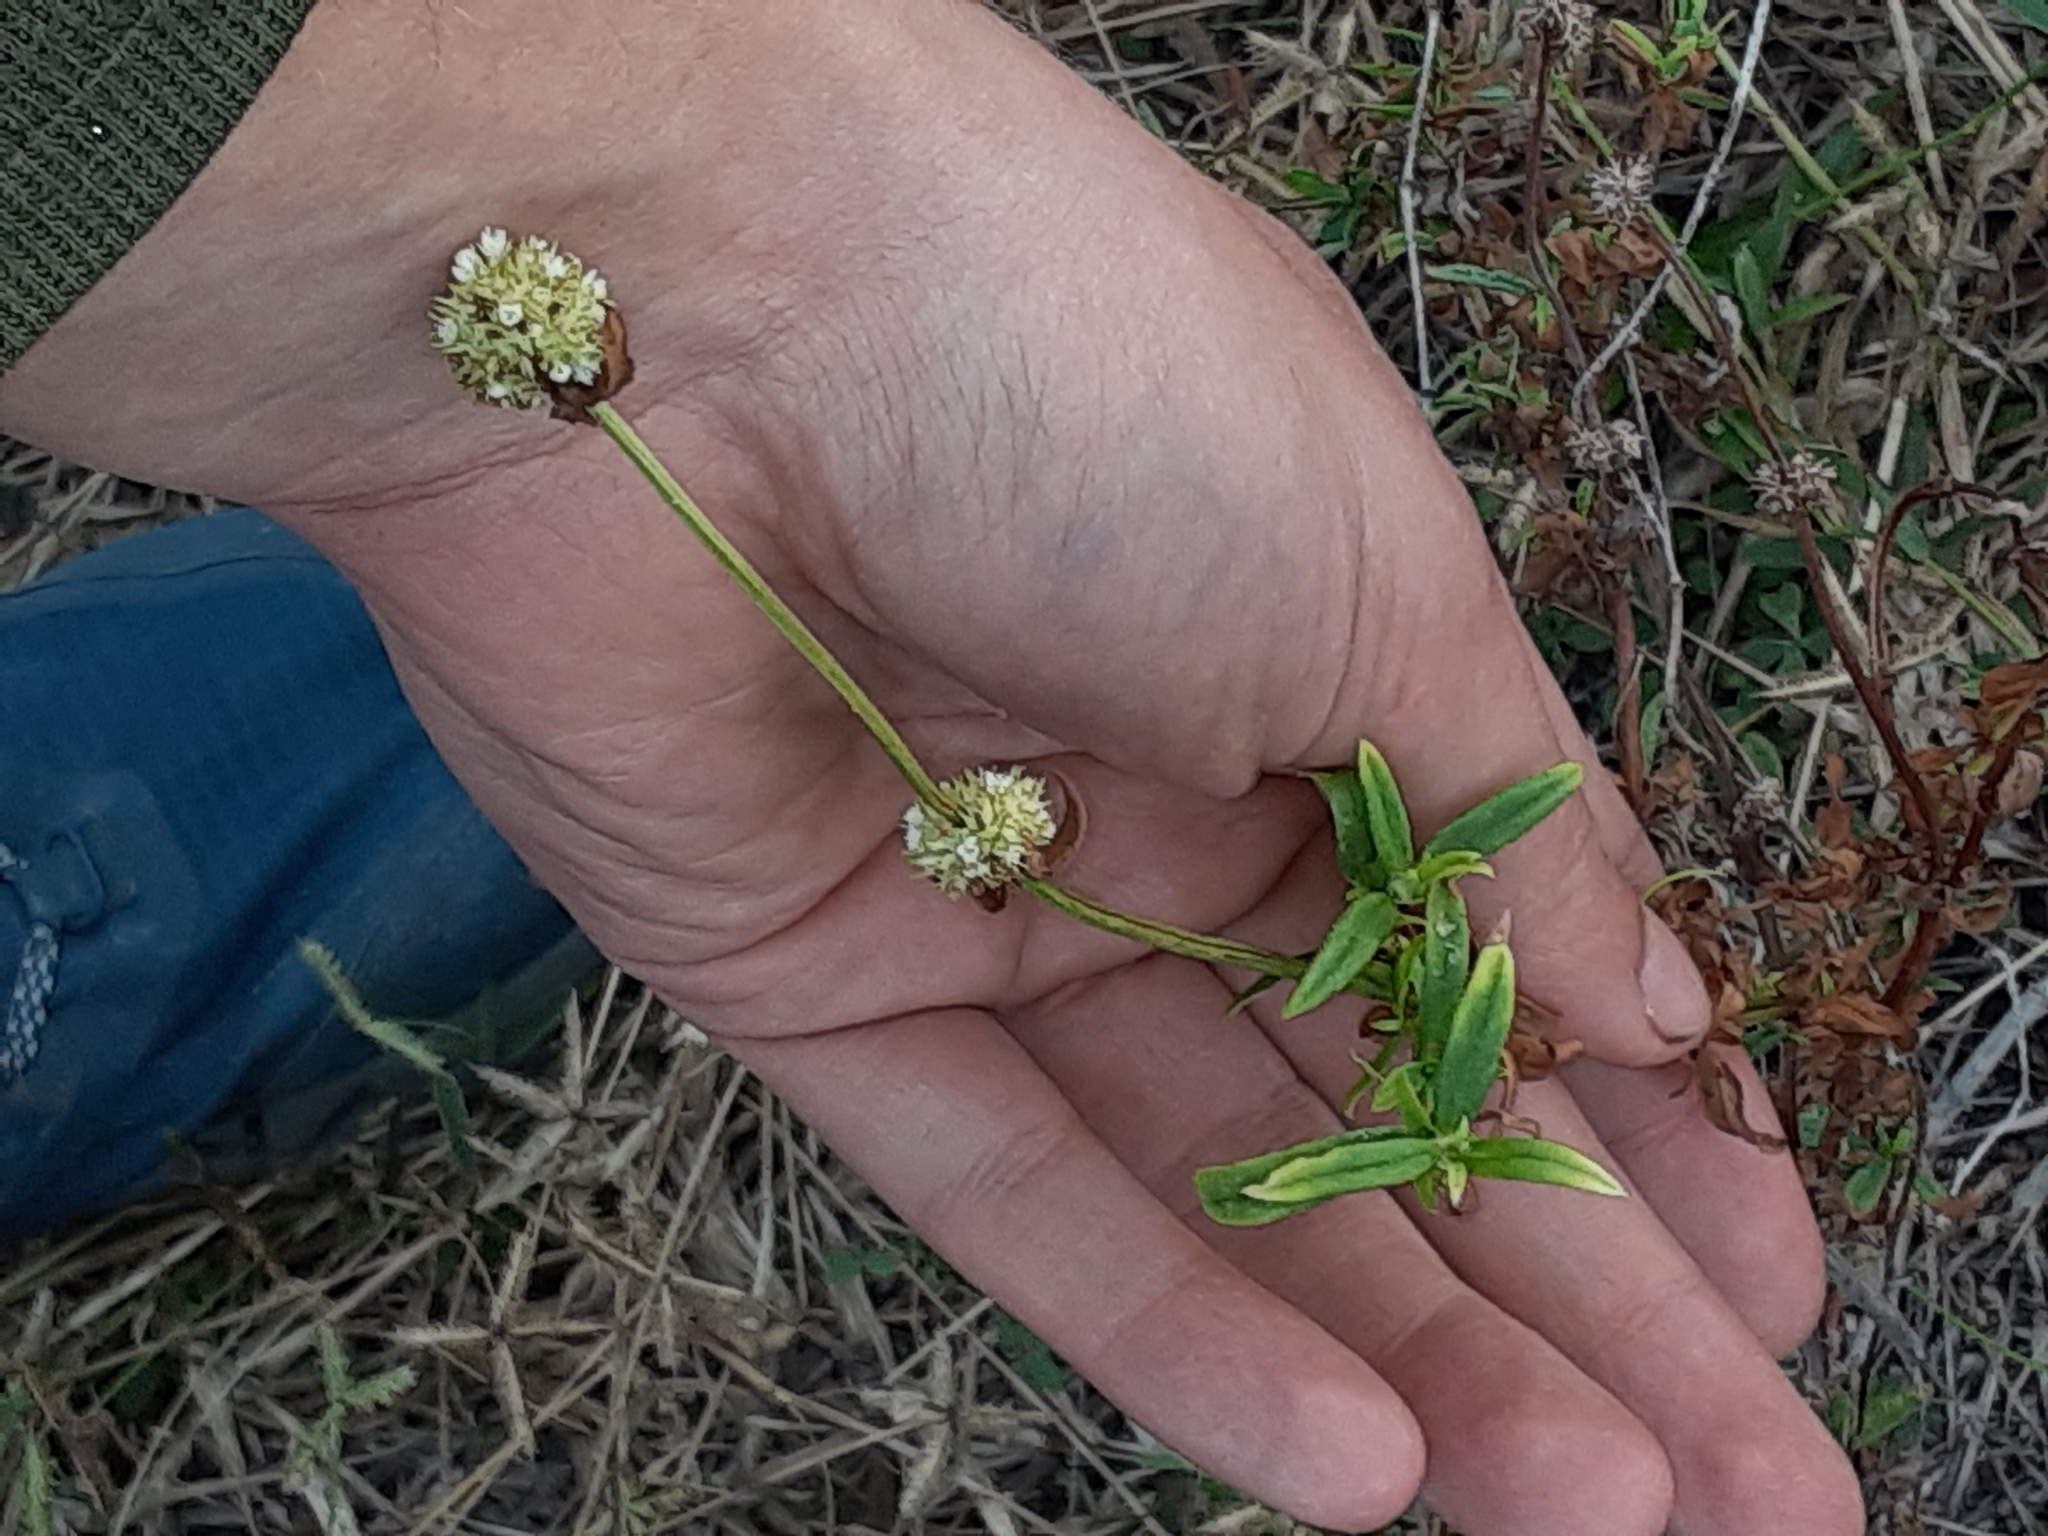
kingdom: Plantae
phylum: Tracheophyta
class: Magnoliopsida
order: Gentianales
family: Rubiaceae
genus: Spermacoce
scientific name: Spermacoce verticillata
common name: Shrubby false buttonweed
